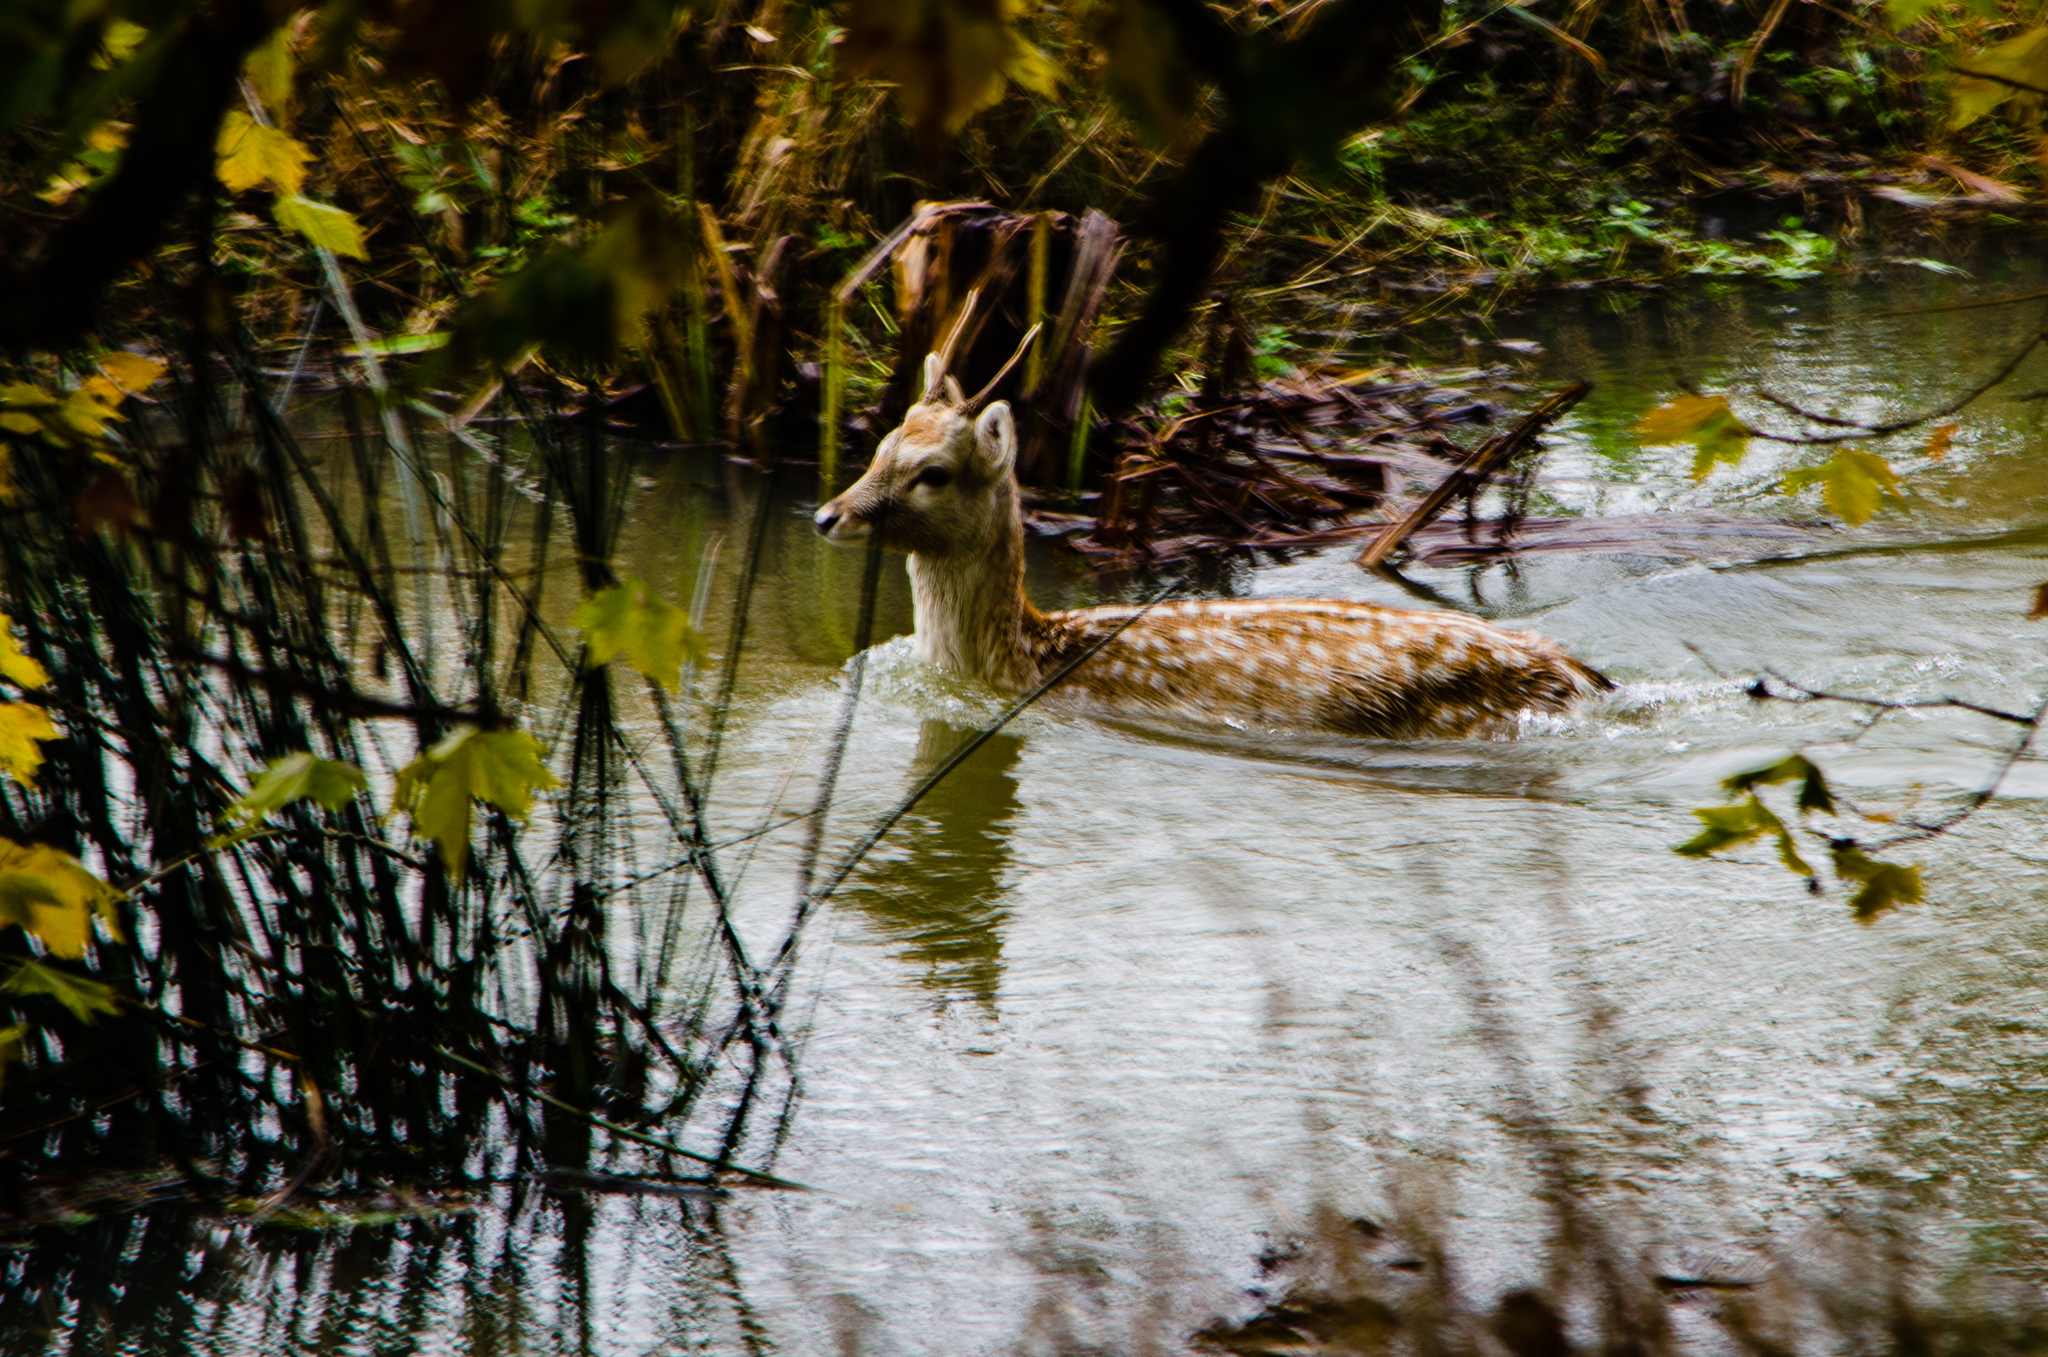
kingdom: Animalia
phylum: Chordata
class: Mammalia
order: Artiodactyla
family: Cervidae
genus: Dama
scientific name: Dama dama
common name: Fallow deer
